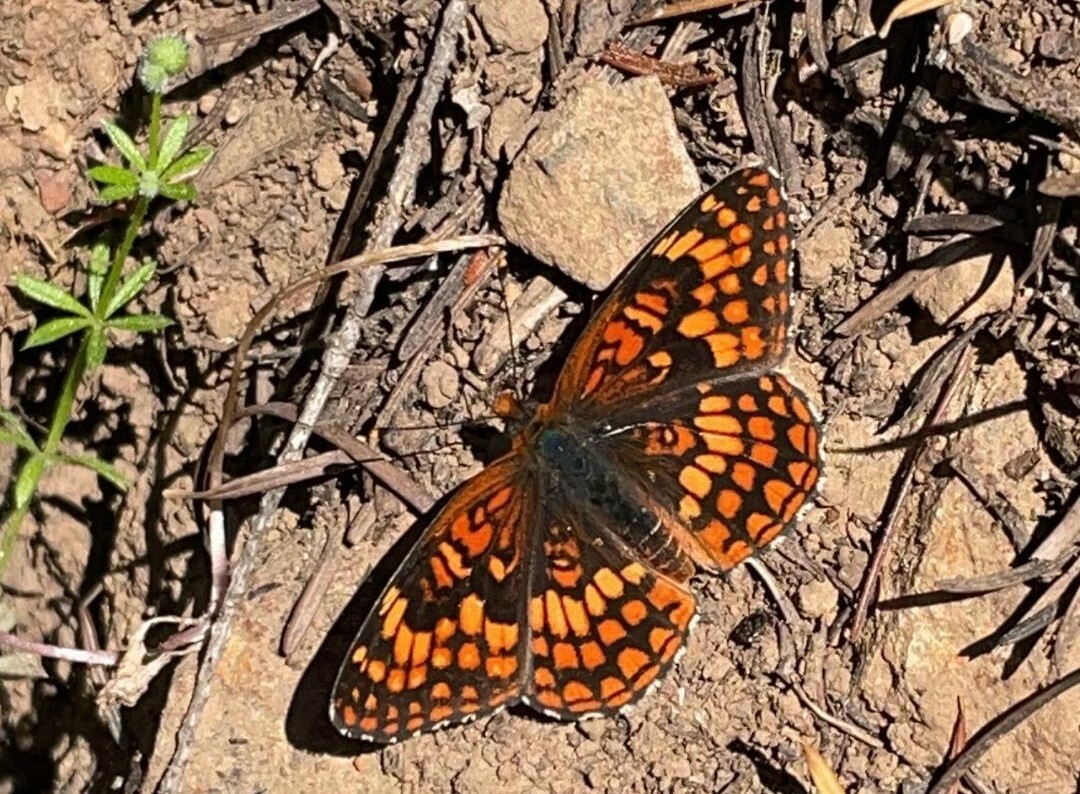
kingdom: Animalia
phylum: Arthropoda
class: Insecta
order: Lepidoptera
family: Nymphalidae
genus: Chlosyne
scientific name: Chlosyne palla
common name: Northern checkerspot
